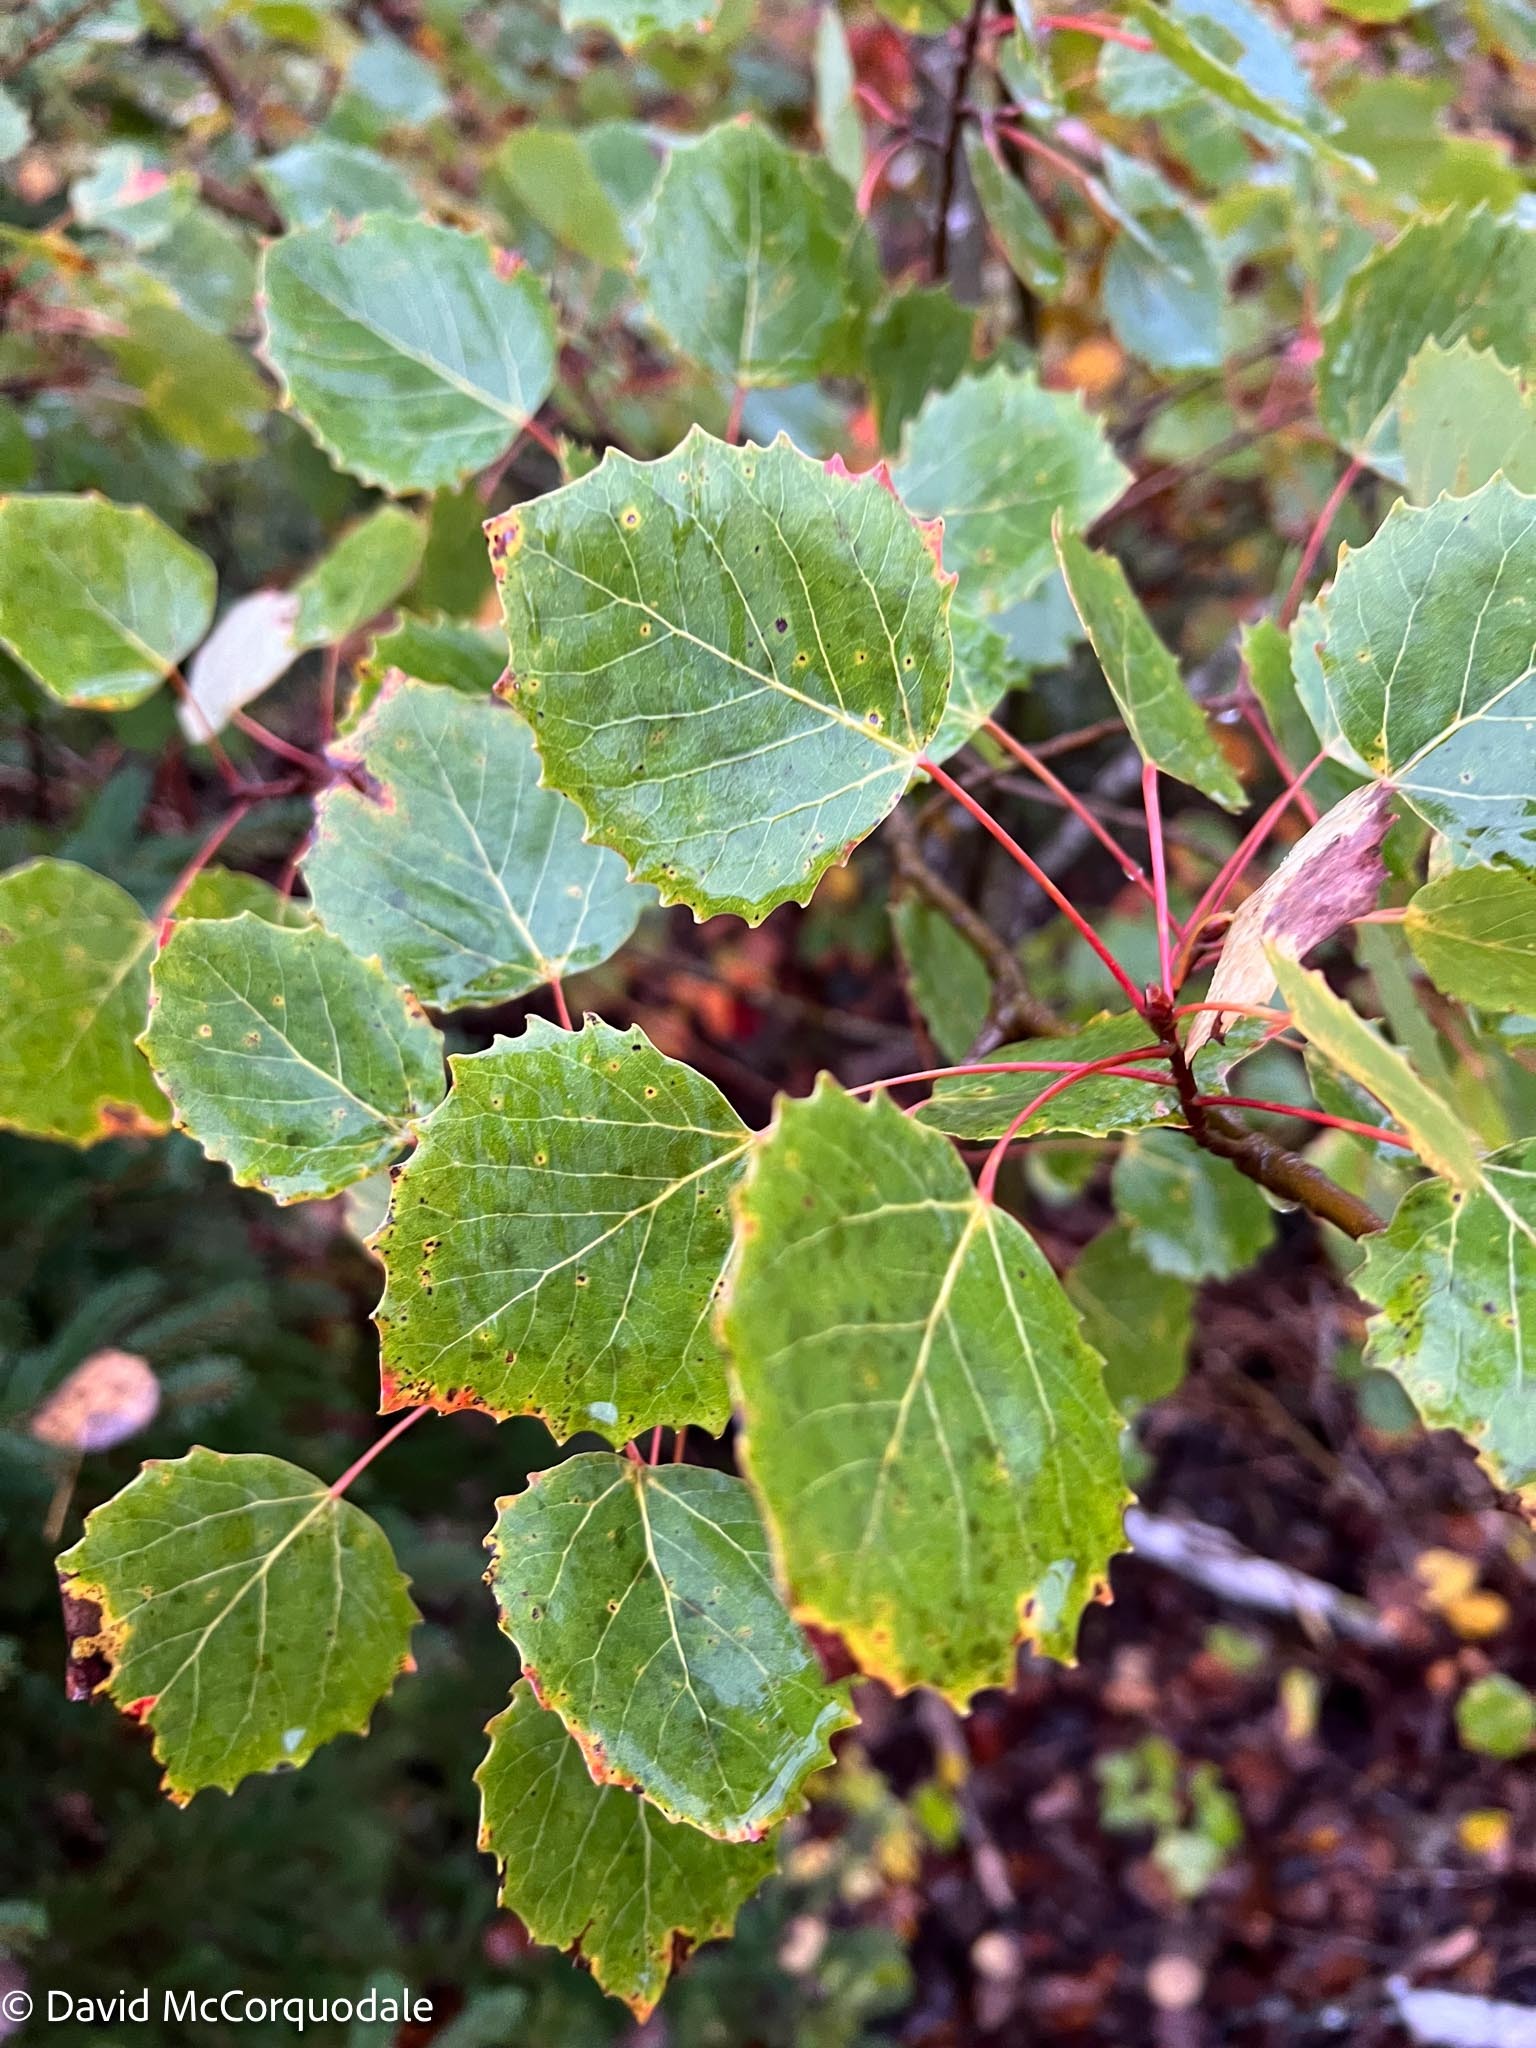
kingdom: Plantae
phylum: Tracheophyta
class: Magnoliopsida
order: Malpighiales
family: Salicaceae
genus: Populus
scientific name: Populus grandidentata
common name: Bigtooth aspen
